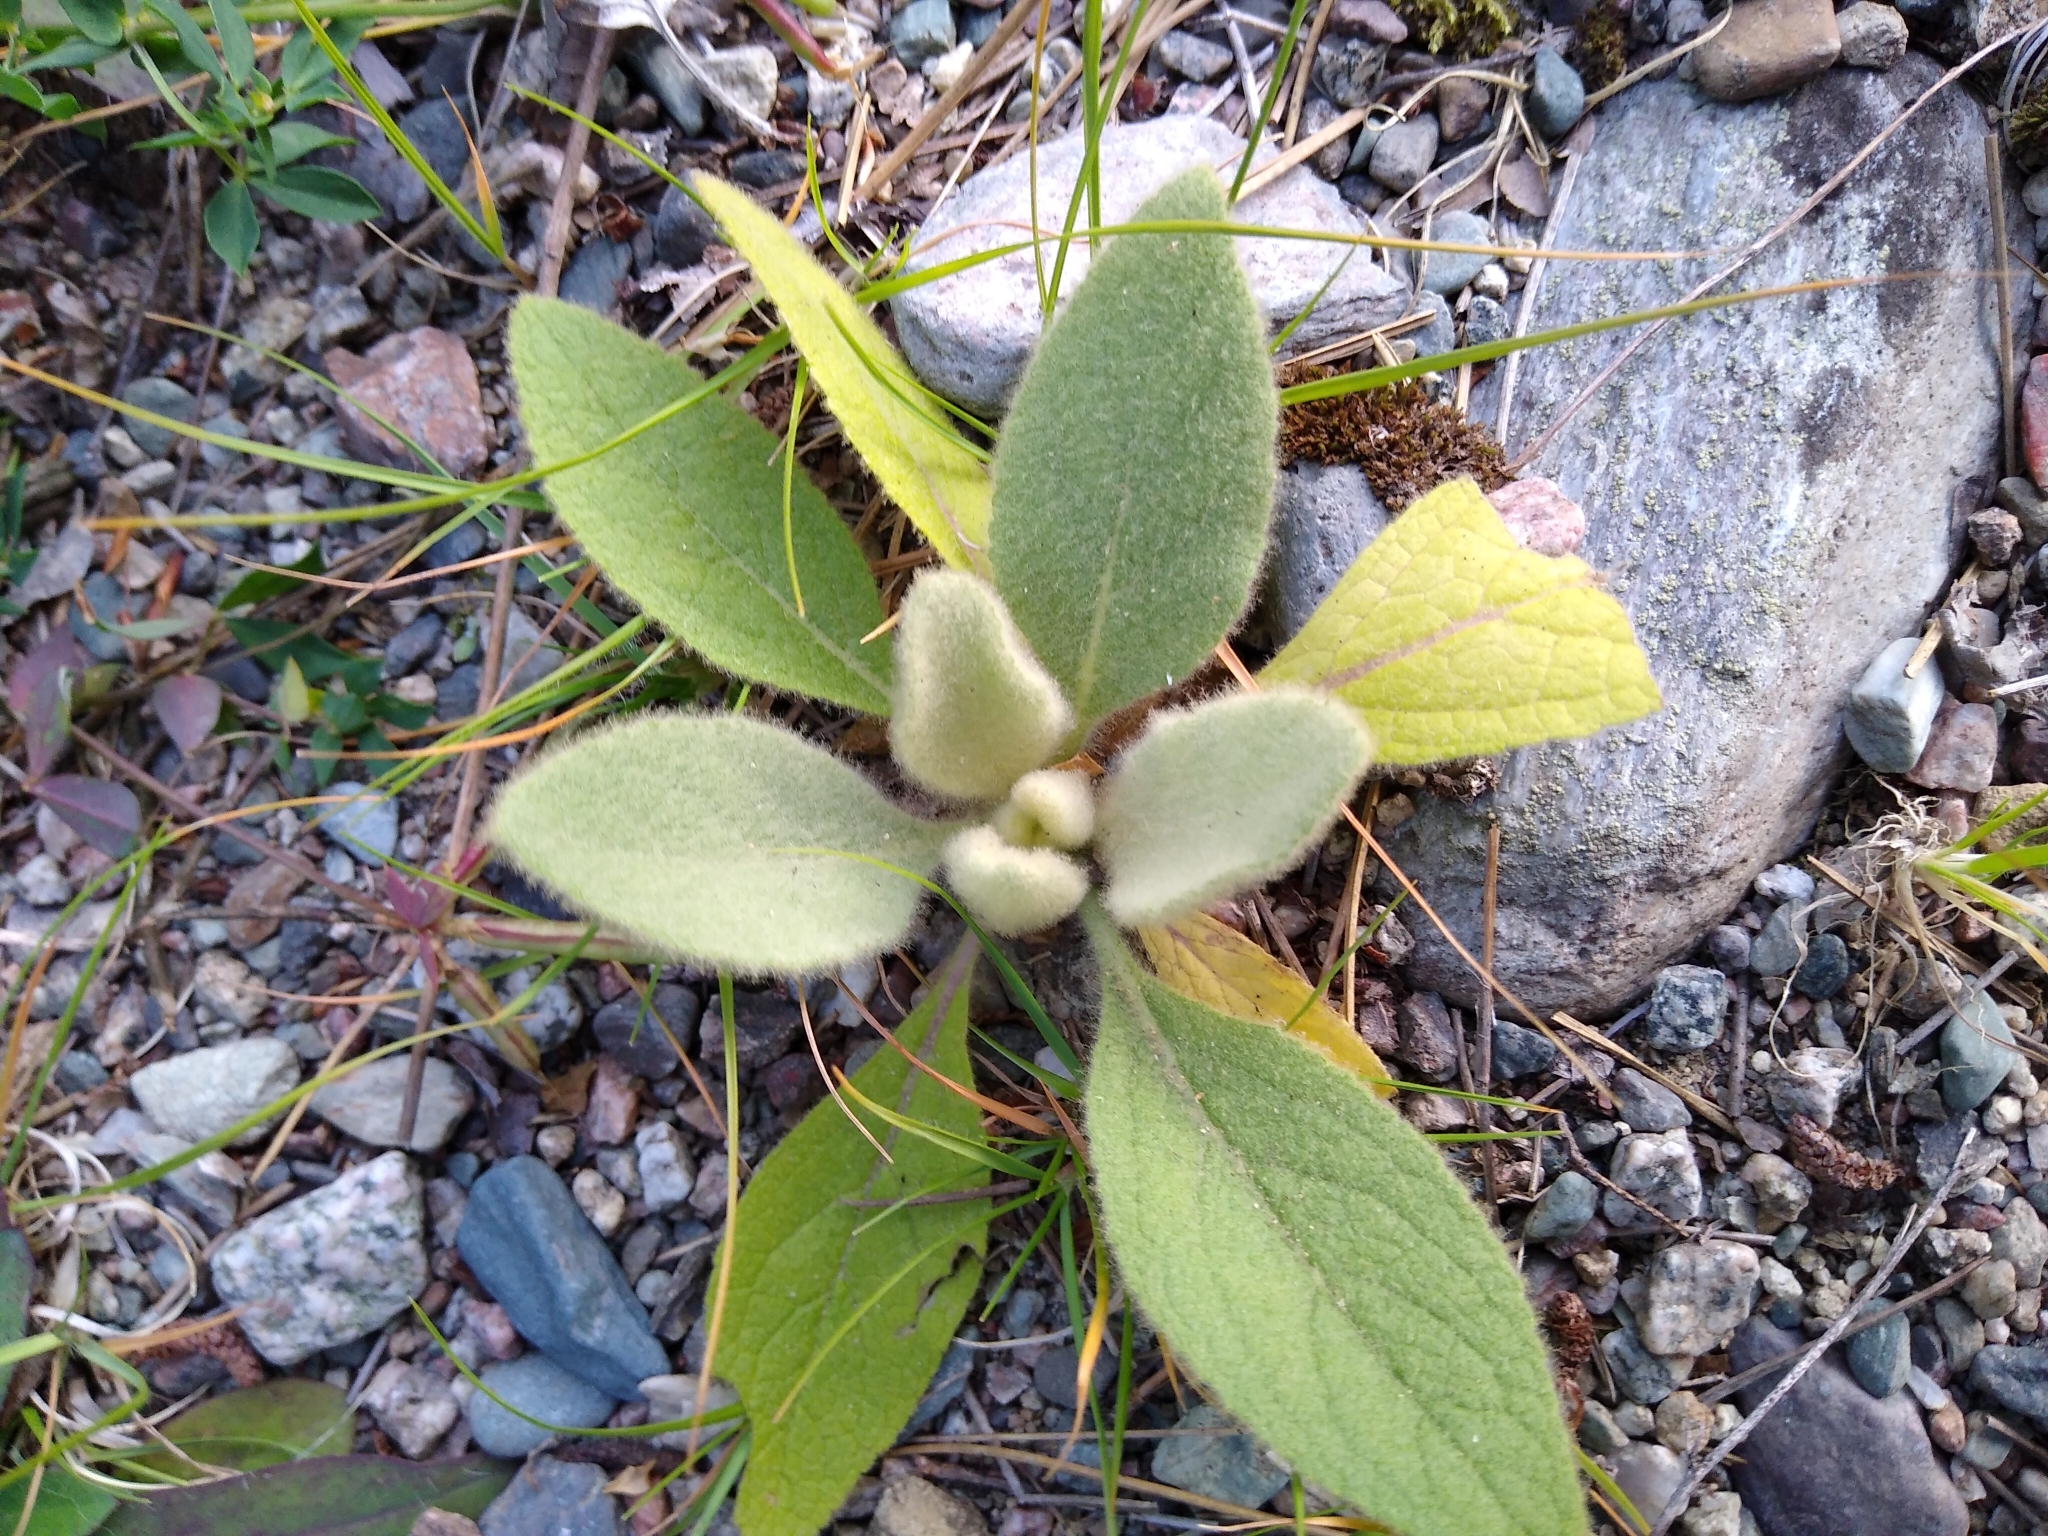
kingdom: Plantae
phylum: Tracheophyta
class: Magnoliopsida
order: Lamiales
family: Scrophulariaceae
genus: Verbascum
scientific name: Verbascum thapsus
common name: Common mullein
